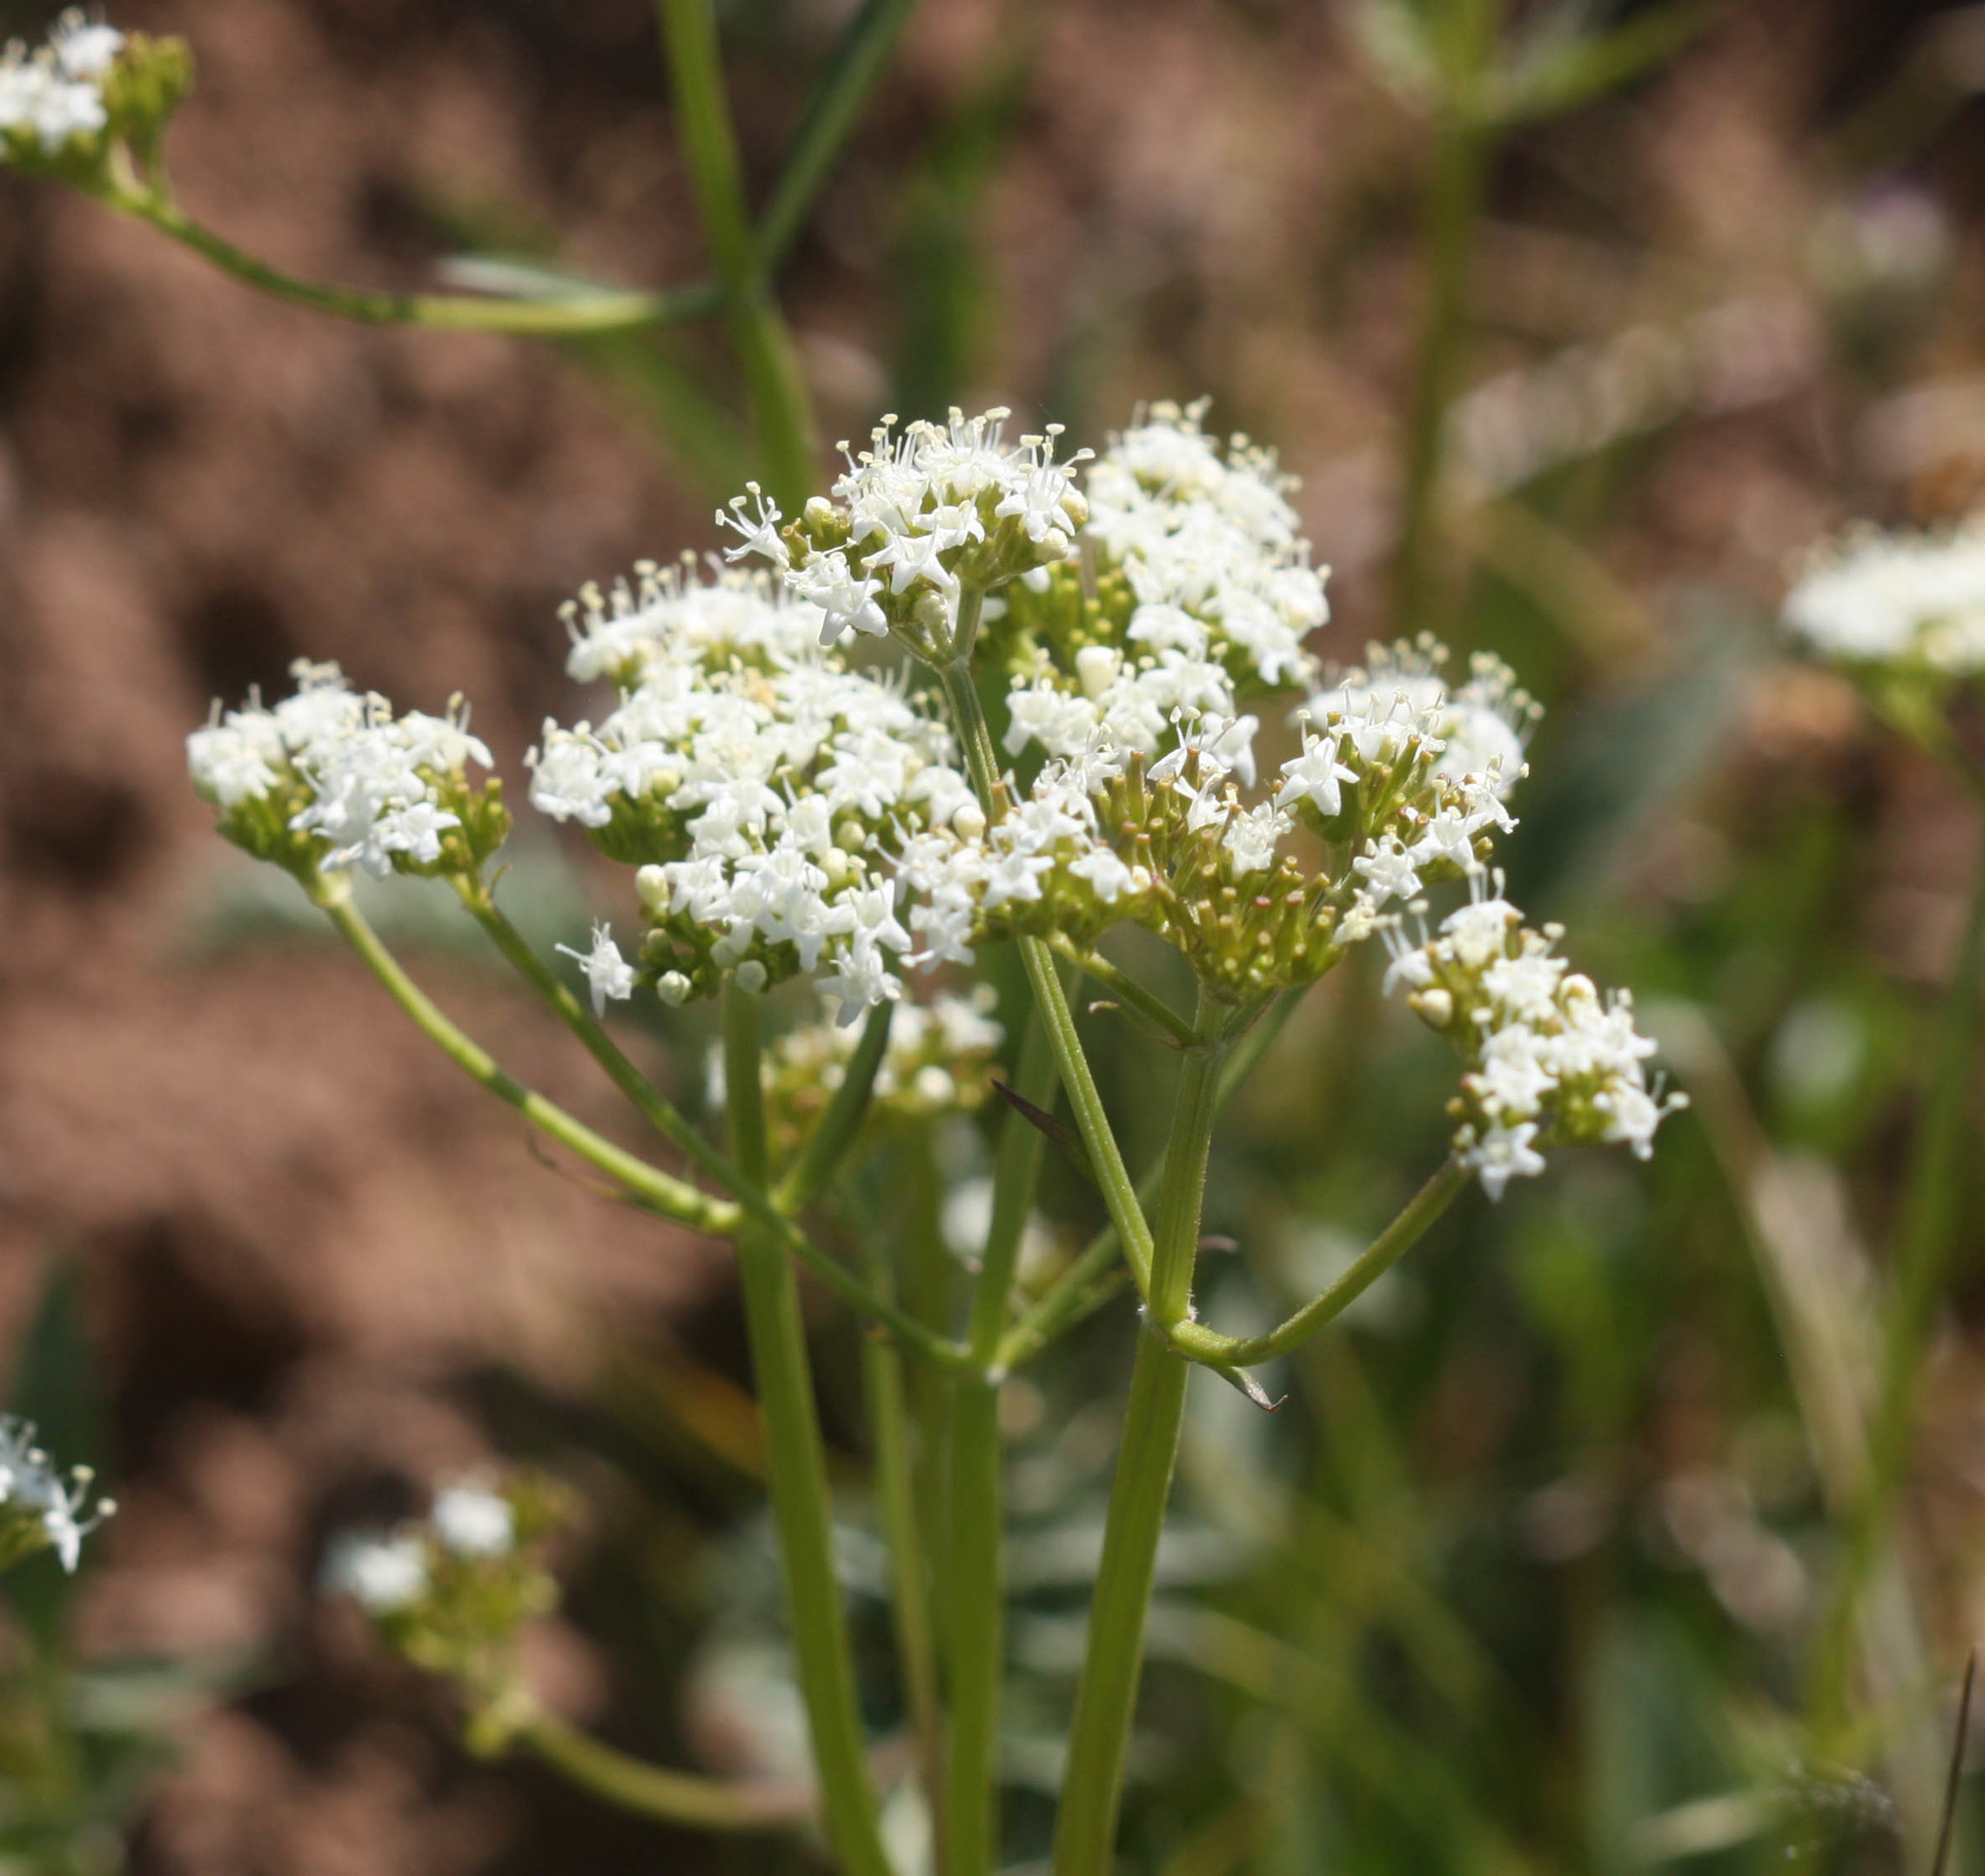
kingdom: Plantae
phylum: Tracheophyta
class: Magnoliopsida
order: Dipsacales
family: Caprifoliaceae
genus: Valeriana
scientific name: Valeriana occidentalis
